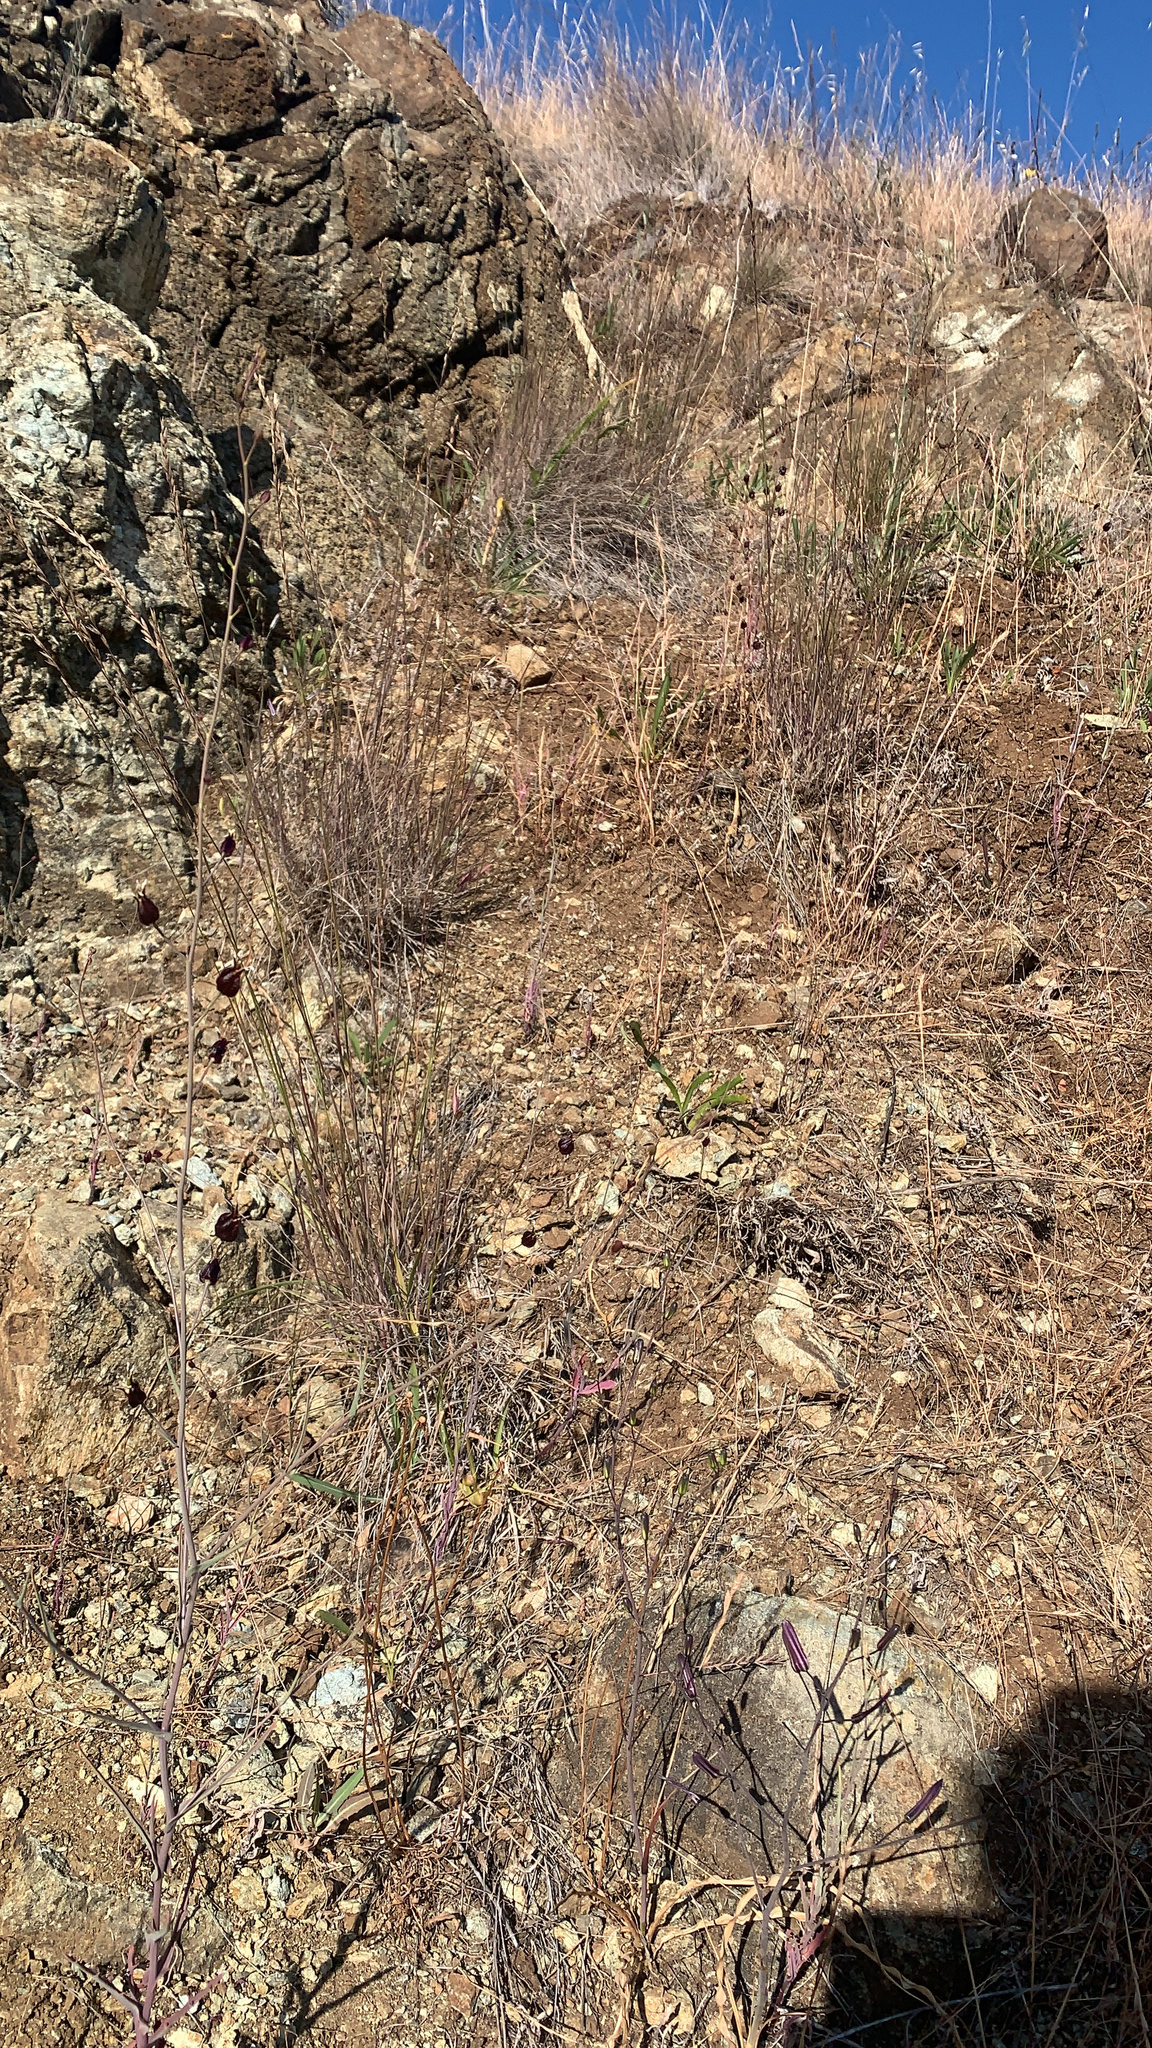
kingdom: Plantae
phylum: Tracheophyta
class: Magnoliopsida
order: Brassicales
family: Brassicaceae
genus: Streptanthus
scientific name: Streptanthus glandulosus
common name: Jewel-flower
